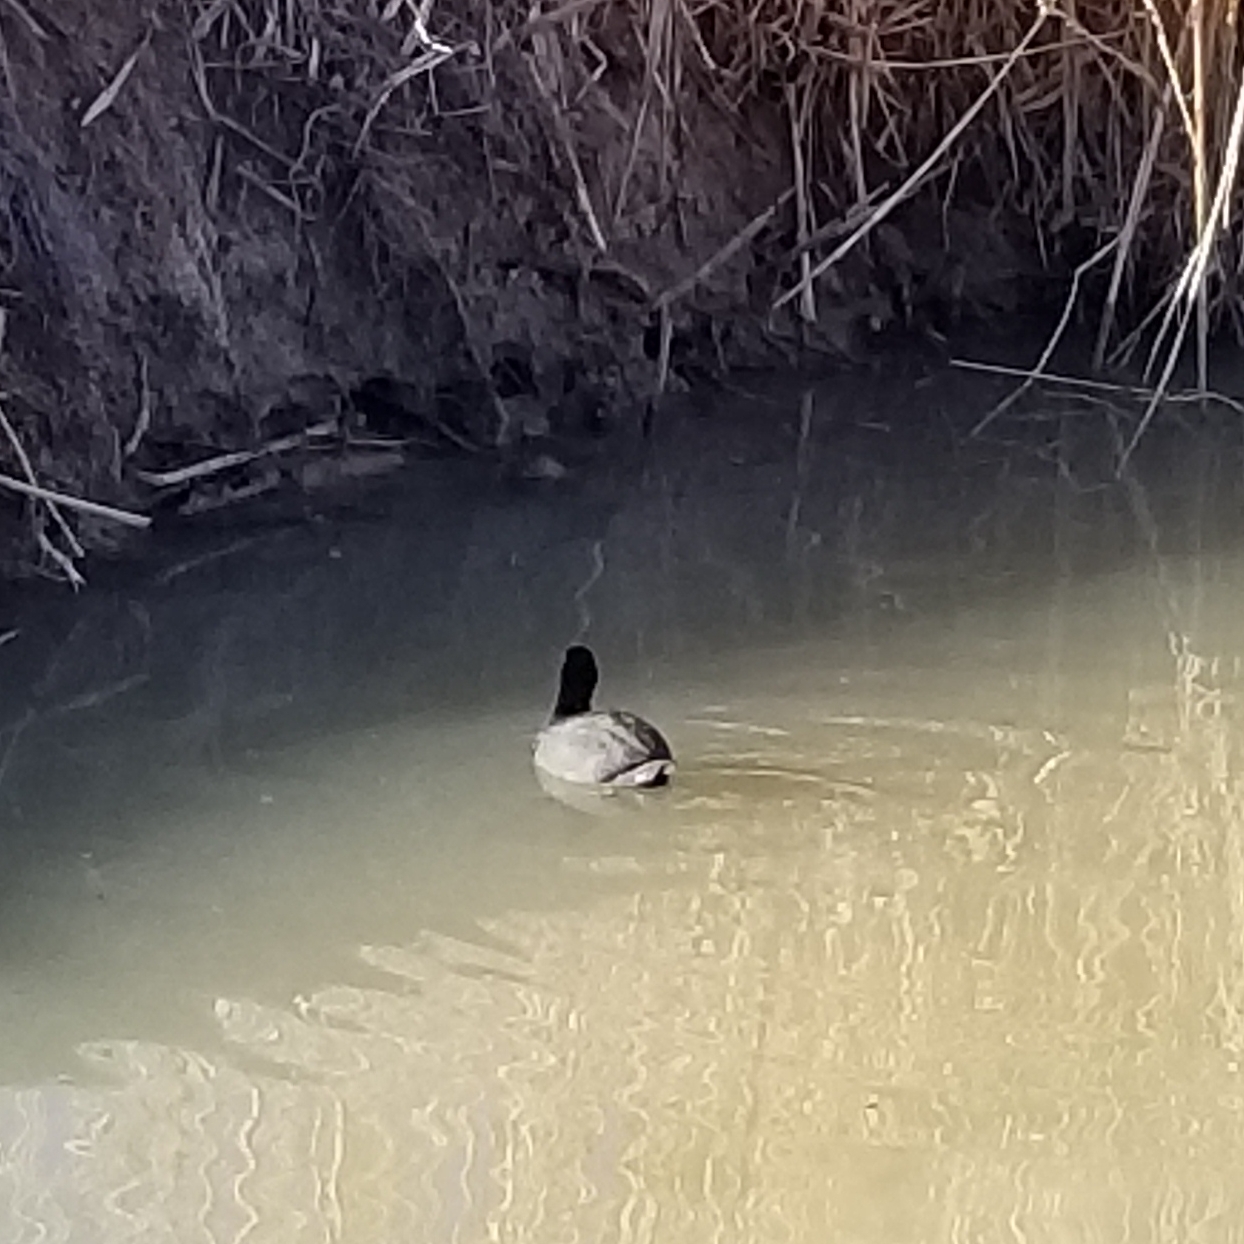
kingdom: Animalia
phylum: Chordata
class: Aves
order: Gruiformes
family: Rallidae
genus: Fulica
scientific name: Fulica americana
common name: American coot
